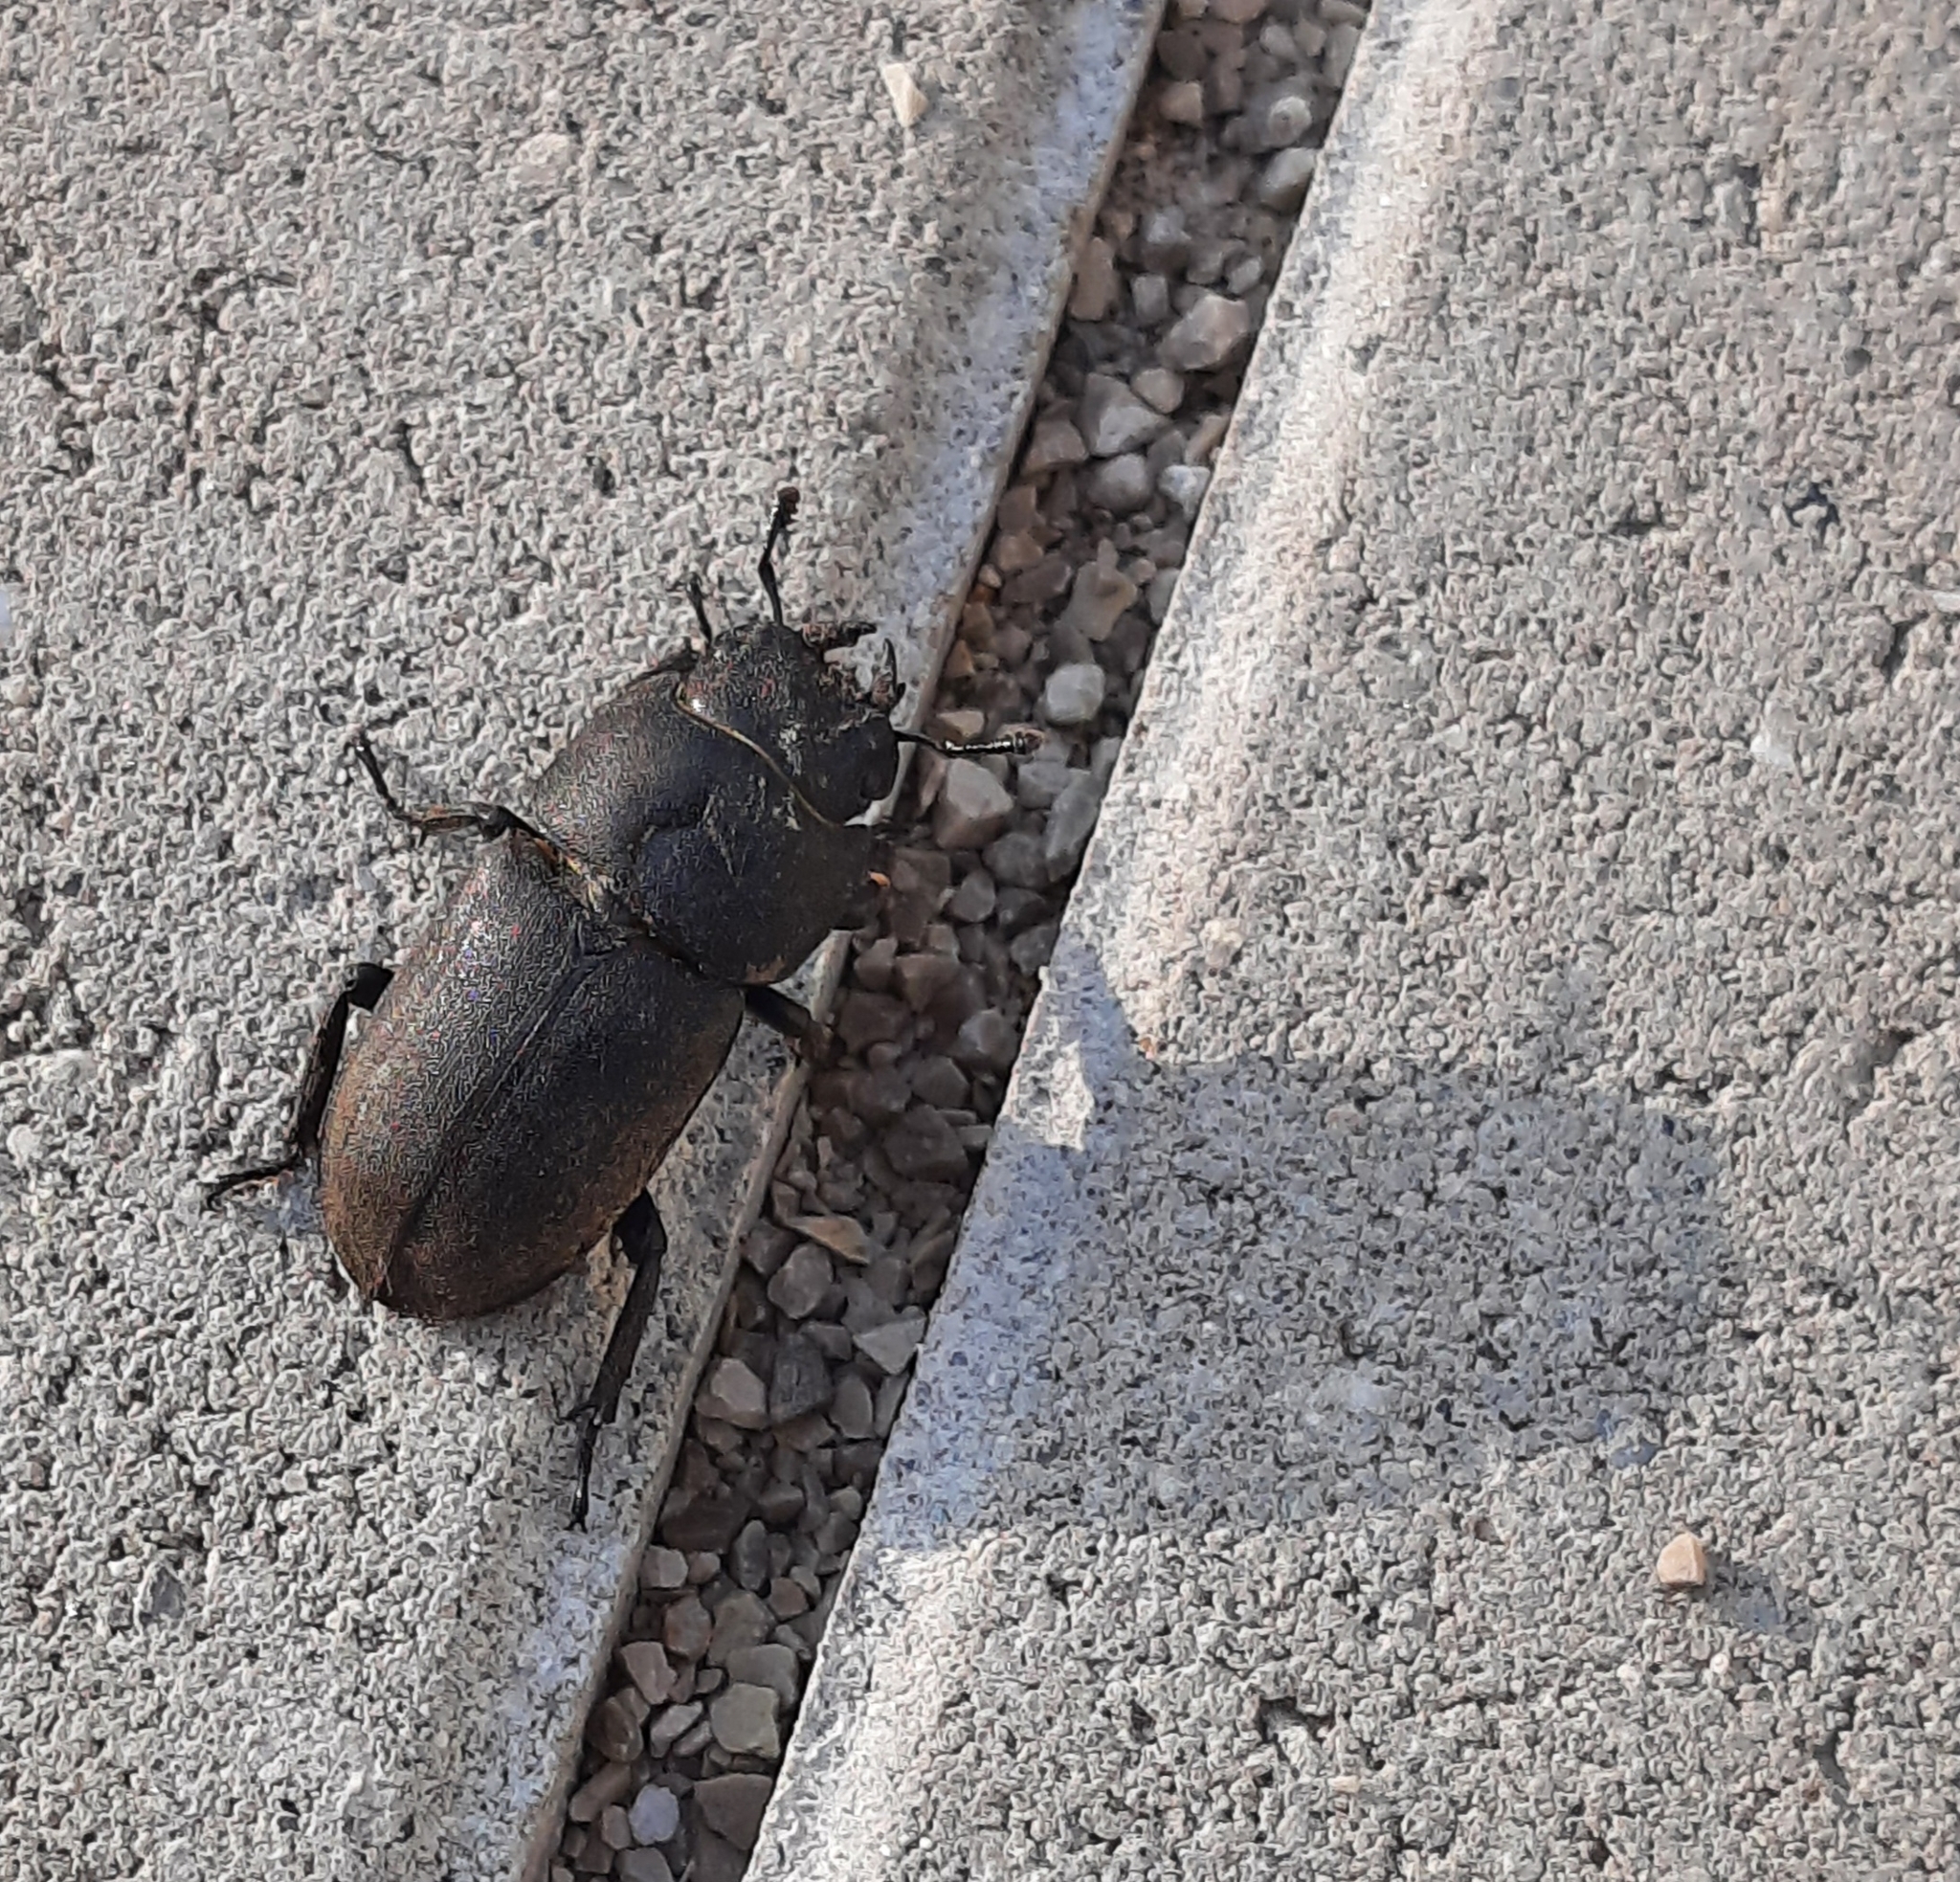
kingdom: Animalia
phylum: Arthropoda
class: Insecta
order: Coleoptera
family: Lucanidae
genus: Dorcus
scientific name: Dorcus parallelipipedus
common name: Lesser stag beetle
